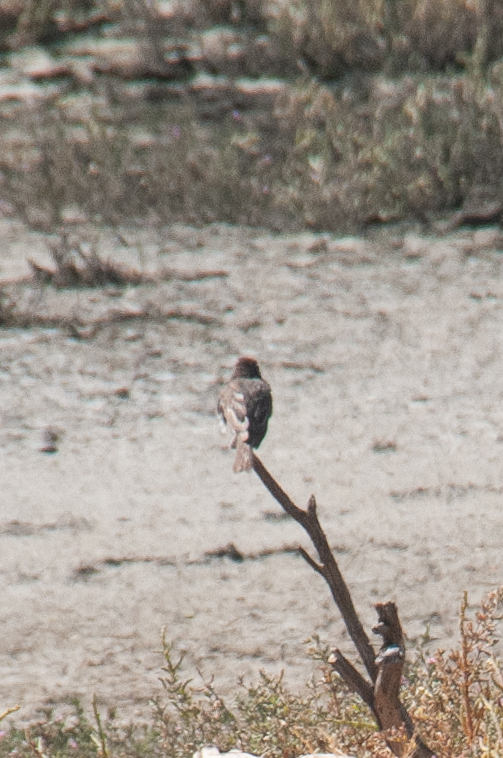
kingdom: Animalia
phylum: Chordata
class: Aves
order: Passeriformes
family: Tyrannidae
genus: Sayornis
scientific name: Sayornis nigricans
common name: Black phoebe
